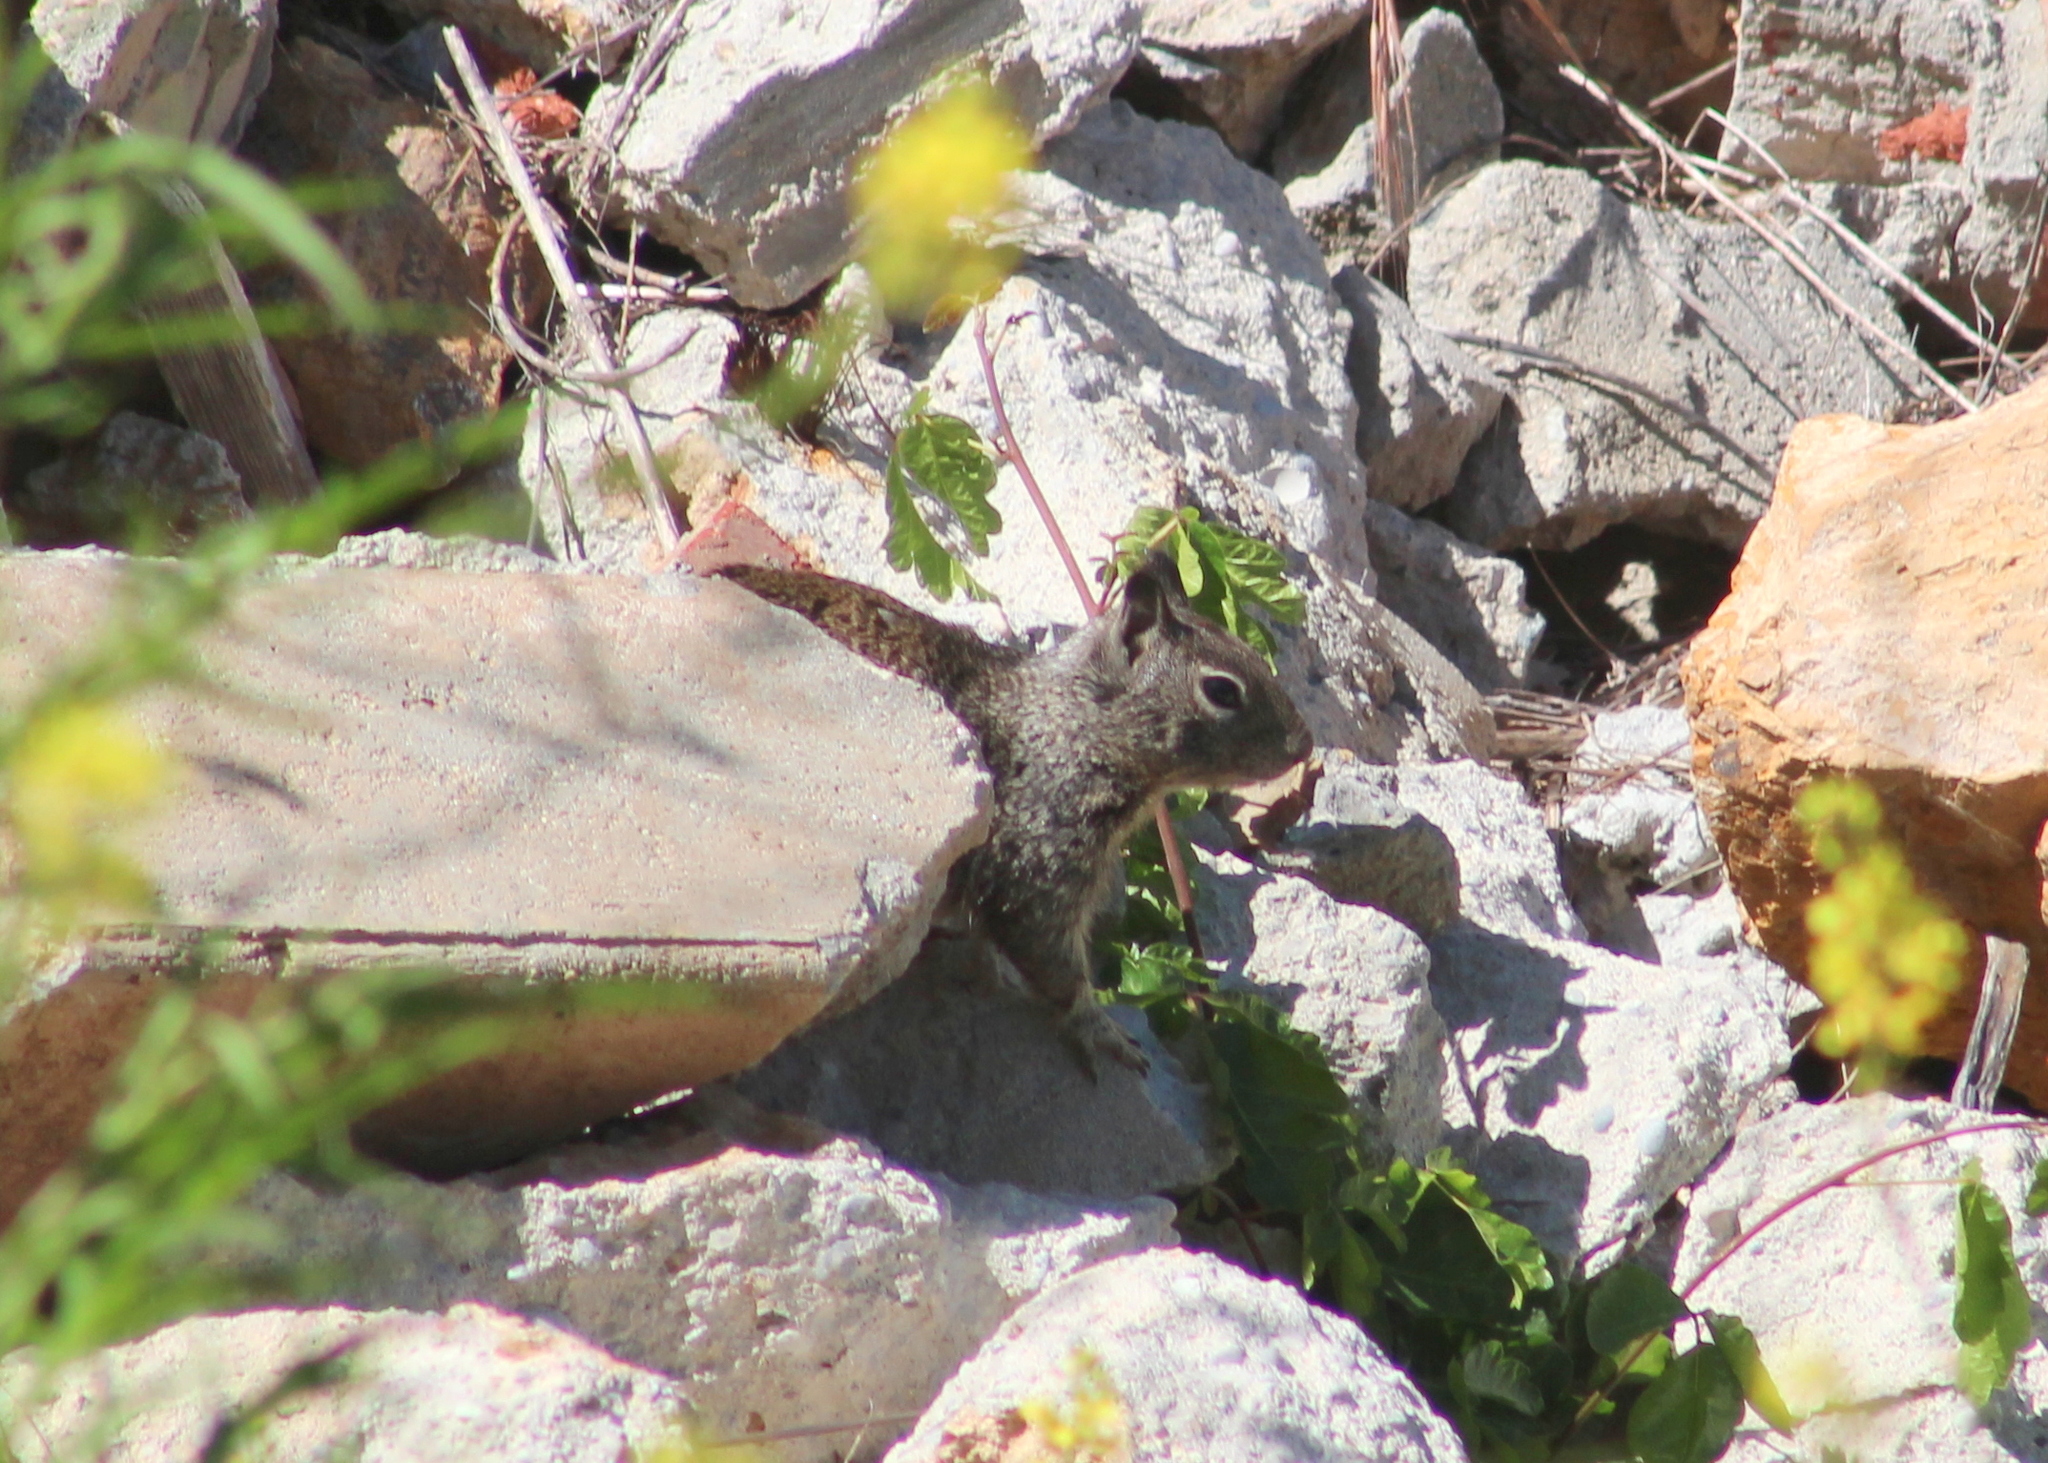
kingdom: Animalia
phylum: Chordata
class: Mammalia
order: Rodentia
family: Sciuridae
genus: Otospermophilus
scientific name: Otospermophilus beecheyi
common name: California ground squirrel
